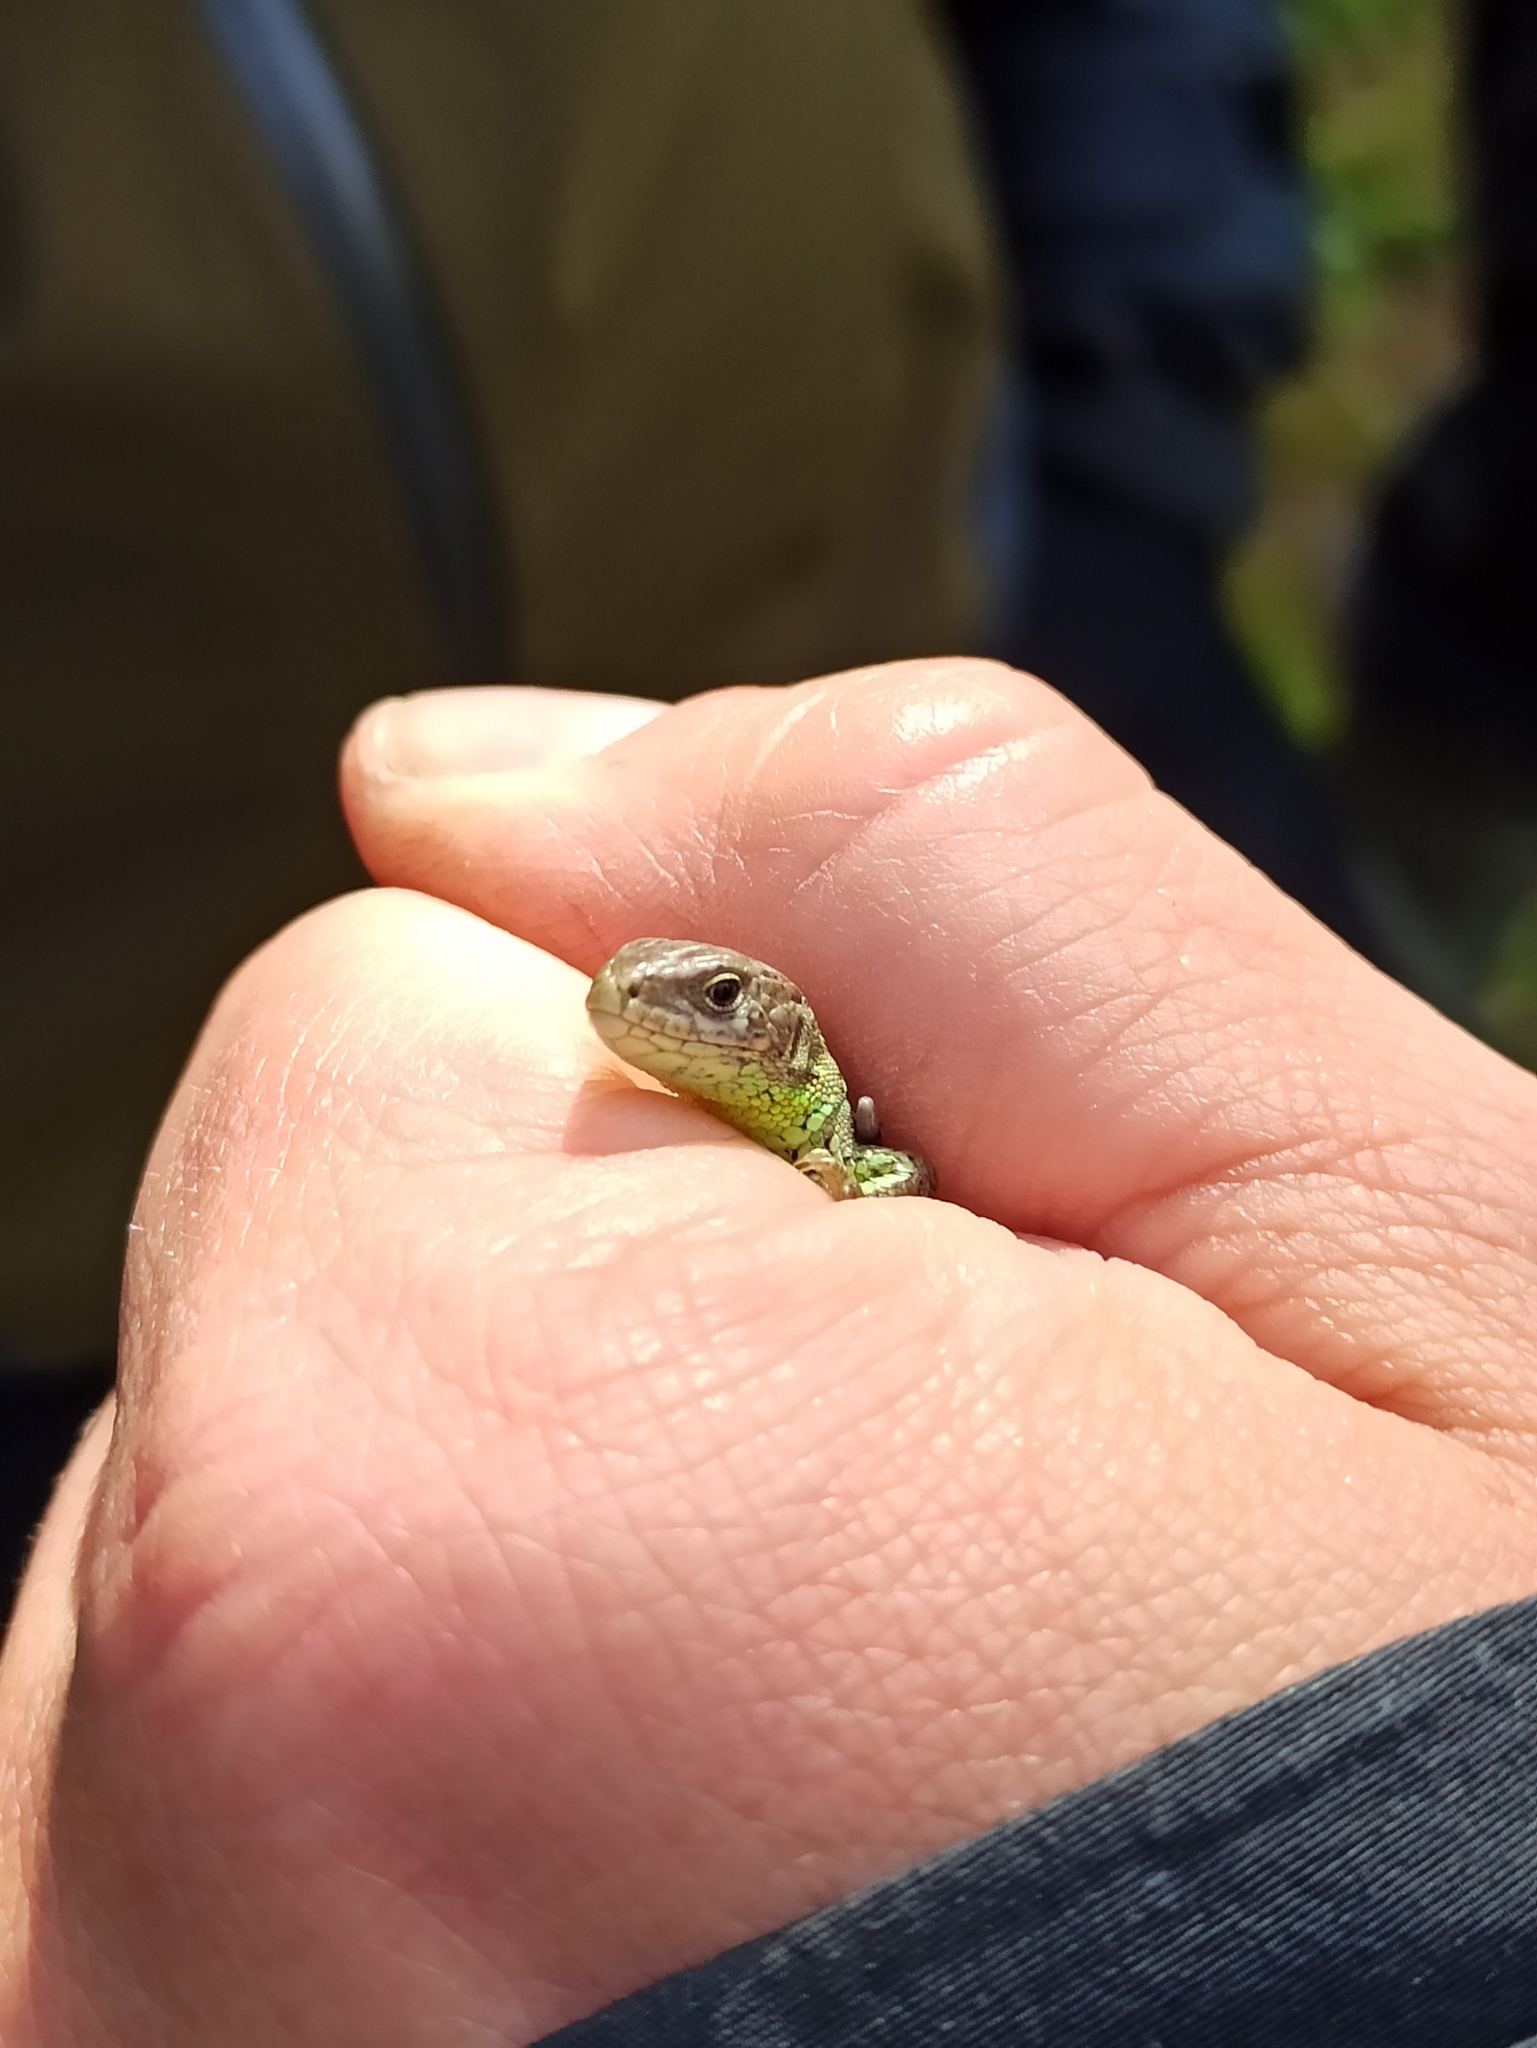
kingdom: Animalia
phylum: Chordata
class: Squamata
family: Lacertidae
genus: Lacerta
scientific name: Lacerta agilis
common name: Sand lizard
